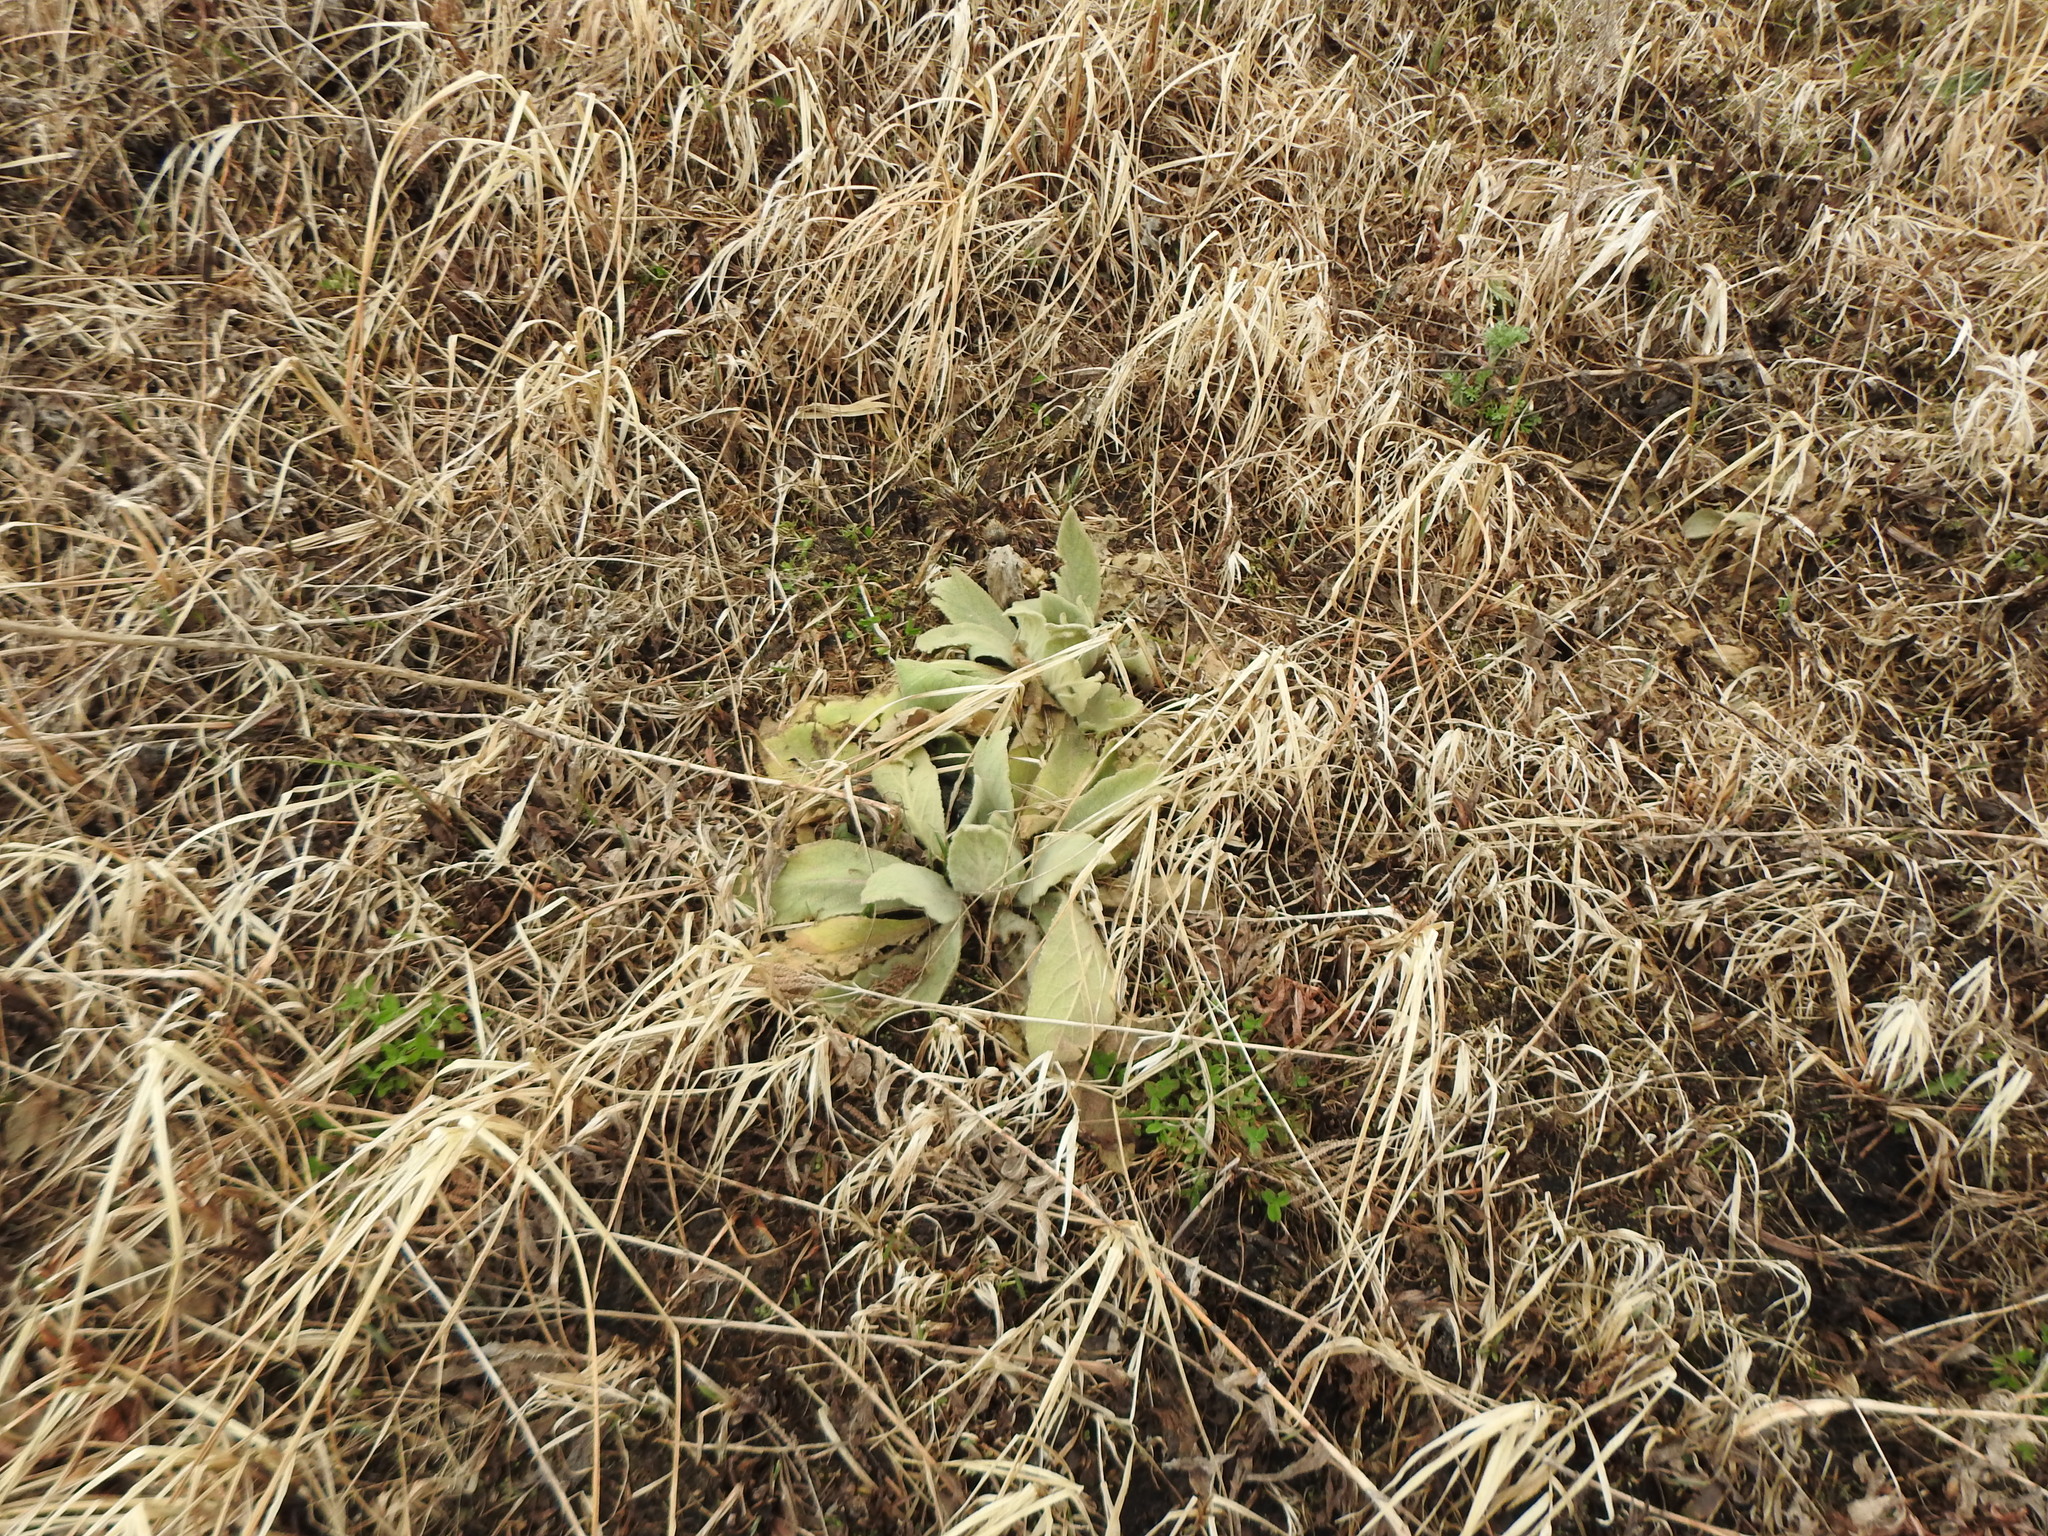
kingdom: Plantae
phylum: Tracheophyta
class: Magnoliopsida
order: Lamiales
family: Scrophulariaceae
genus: Verbascum
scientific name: Verbascum thapsus
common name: Common mullein
